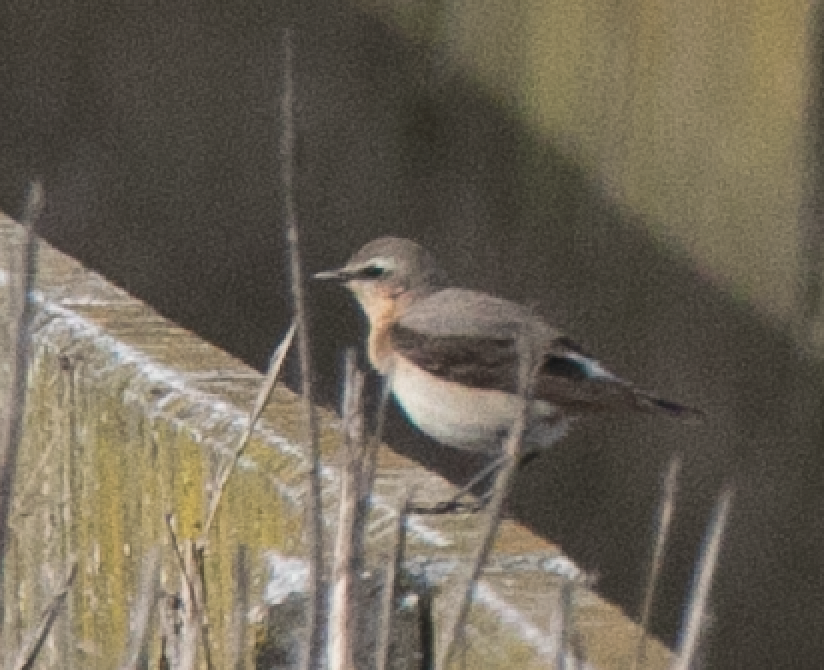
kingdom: Animalia
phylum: Chordata
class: Aves
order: Passeriformes
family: Muscicapidae
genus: Oenanthe
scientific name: Oenanthe oenanthe
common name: Northern wheatear
